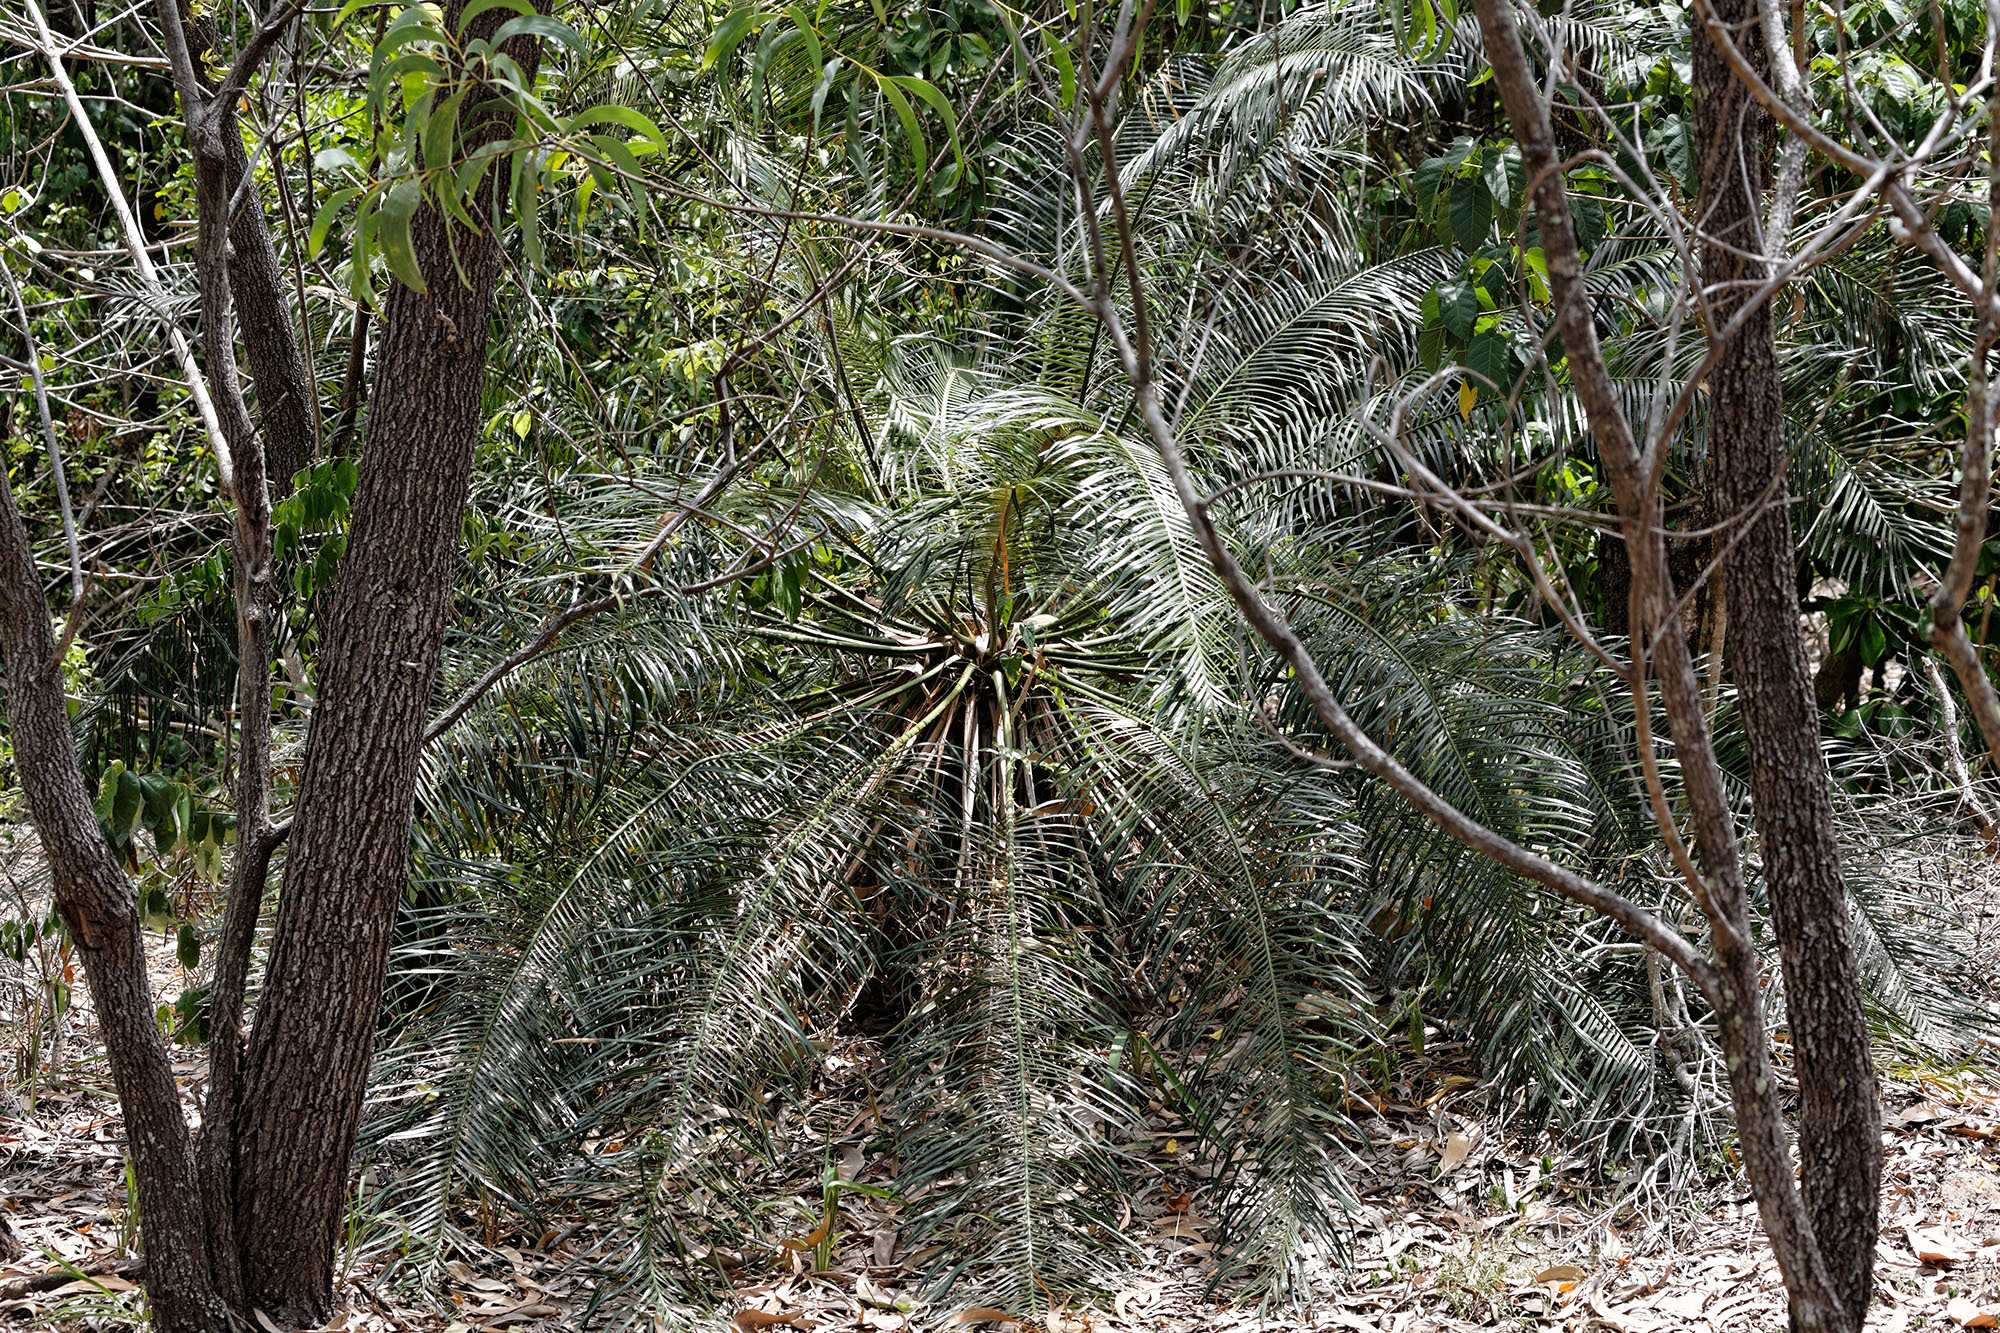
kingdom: Plantae
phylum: Tracheophyta
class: Cycadopsida
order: Cycadales
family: Cycadaceae
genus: Cycas
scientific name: Cycas media
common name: Queensland cycas
